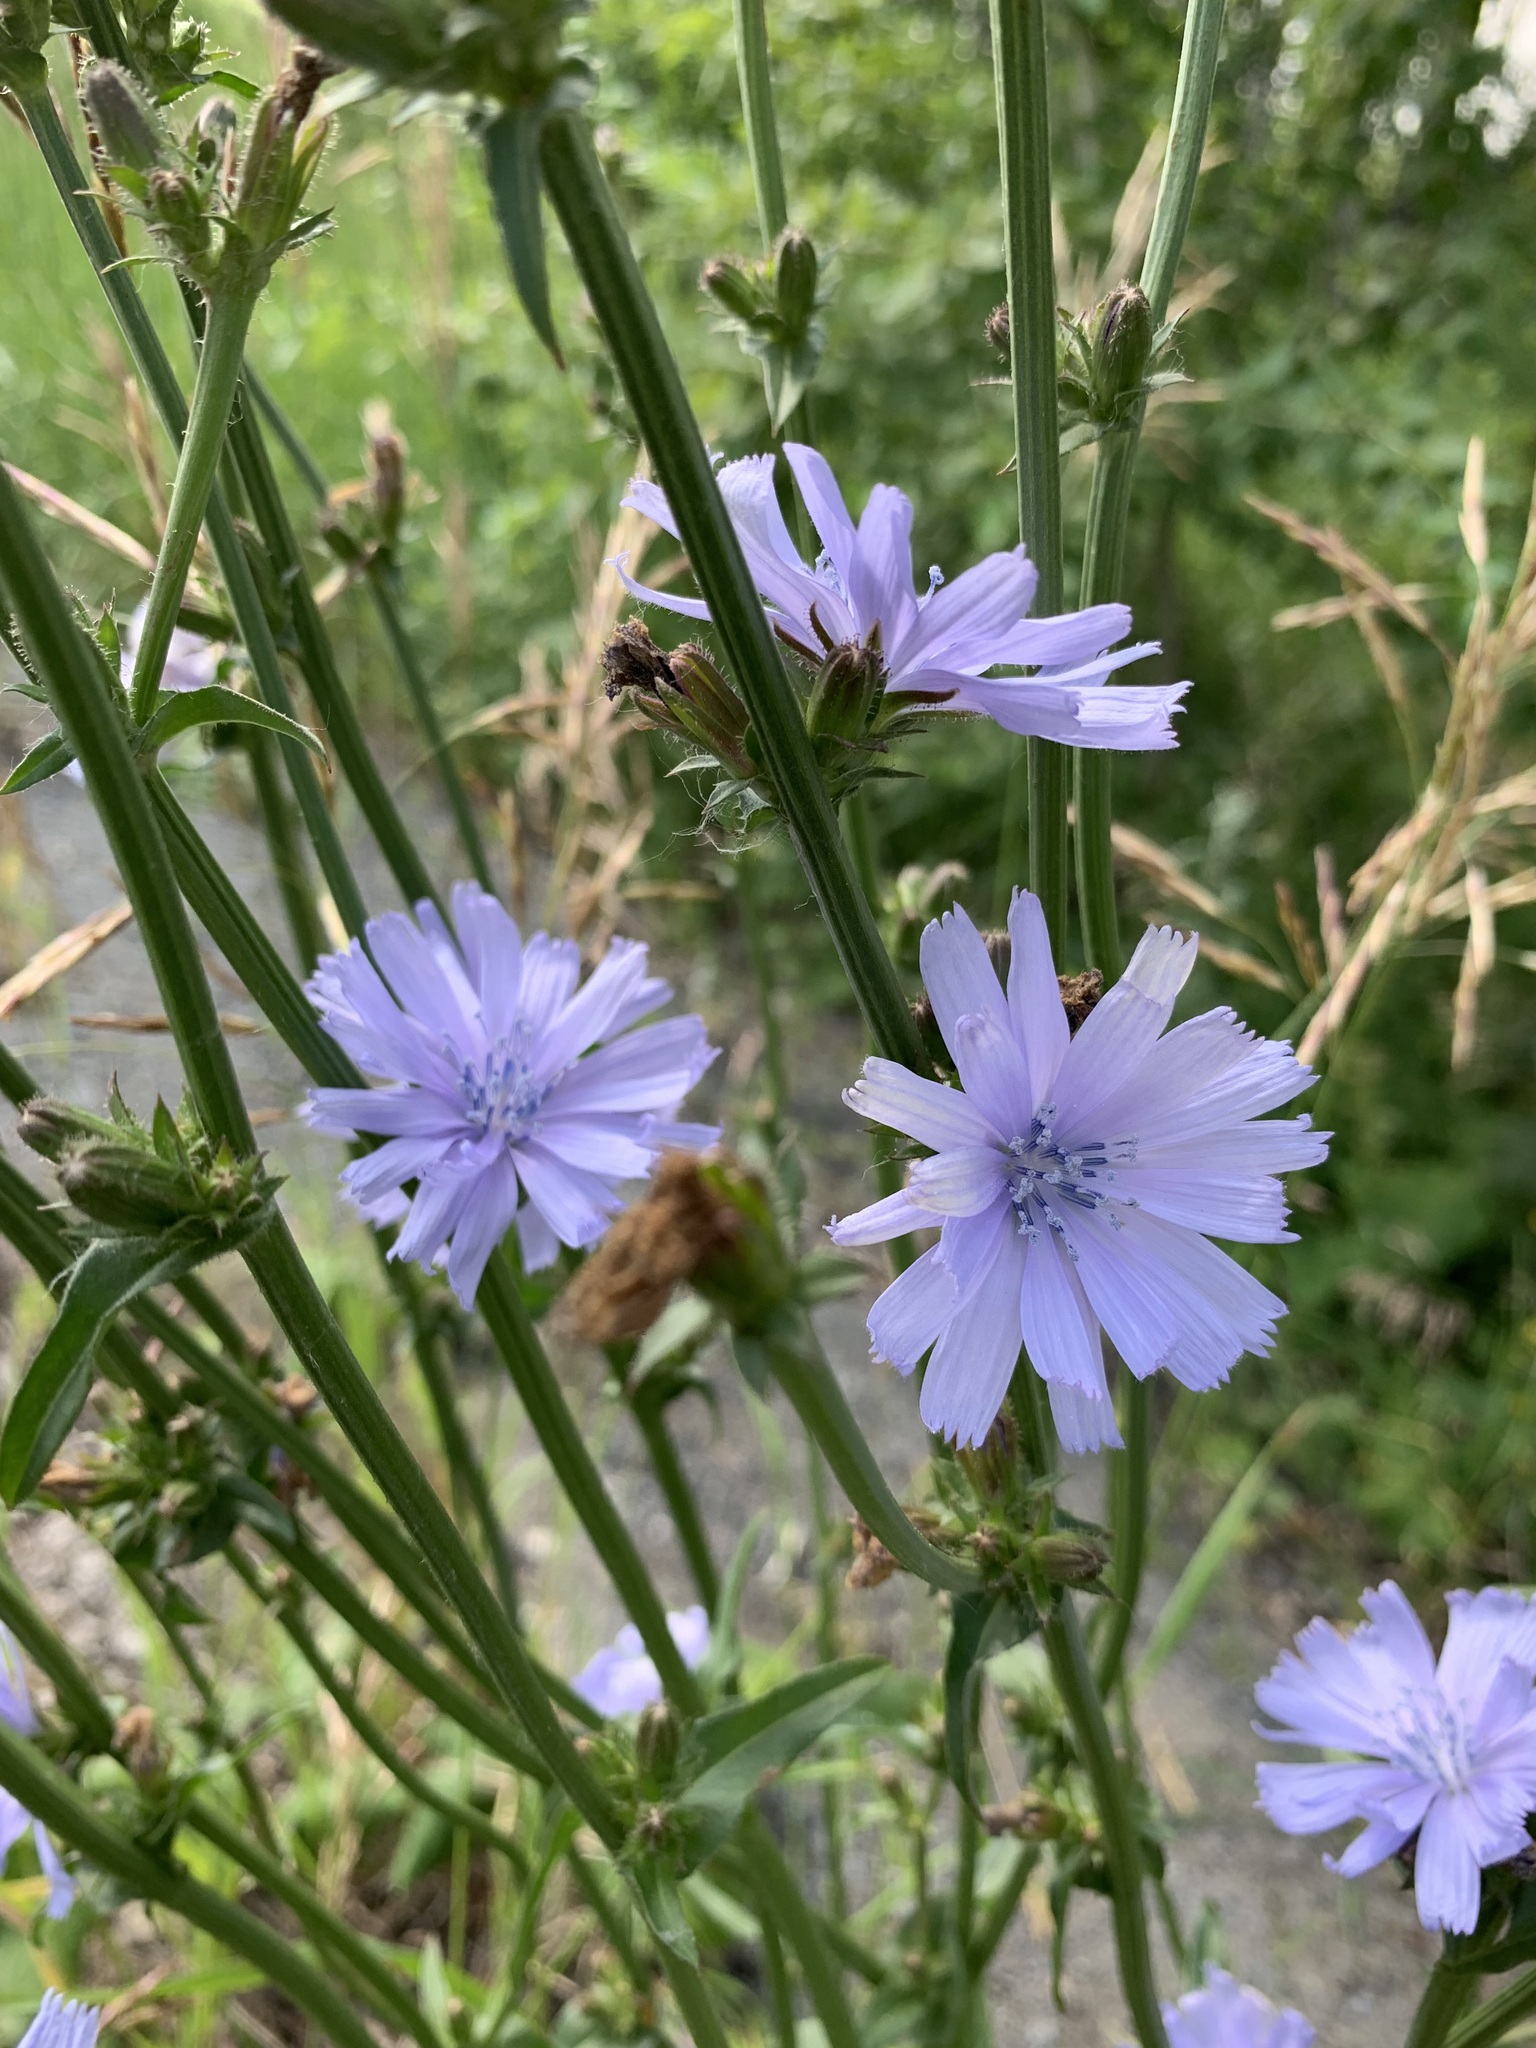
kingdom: Plantae
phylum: Tracheophyta
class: Magnoliopsida
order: Asterales
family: Asteraceae
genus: Cichorium
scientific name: Cichorium intybus
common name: Chicory
